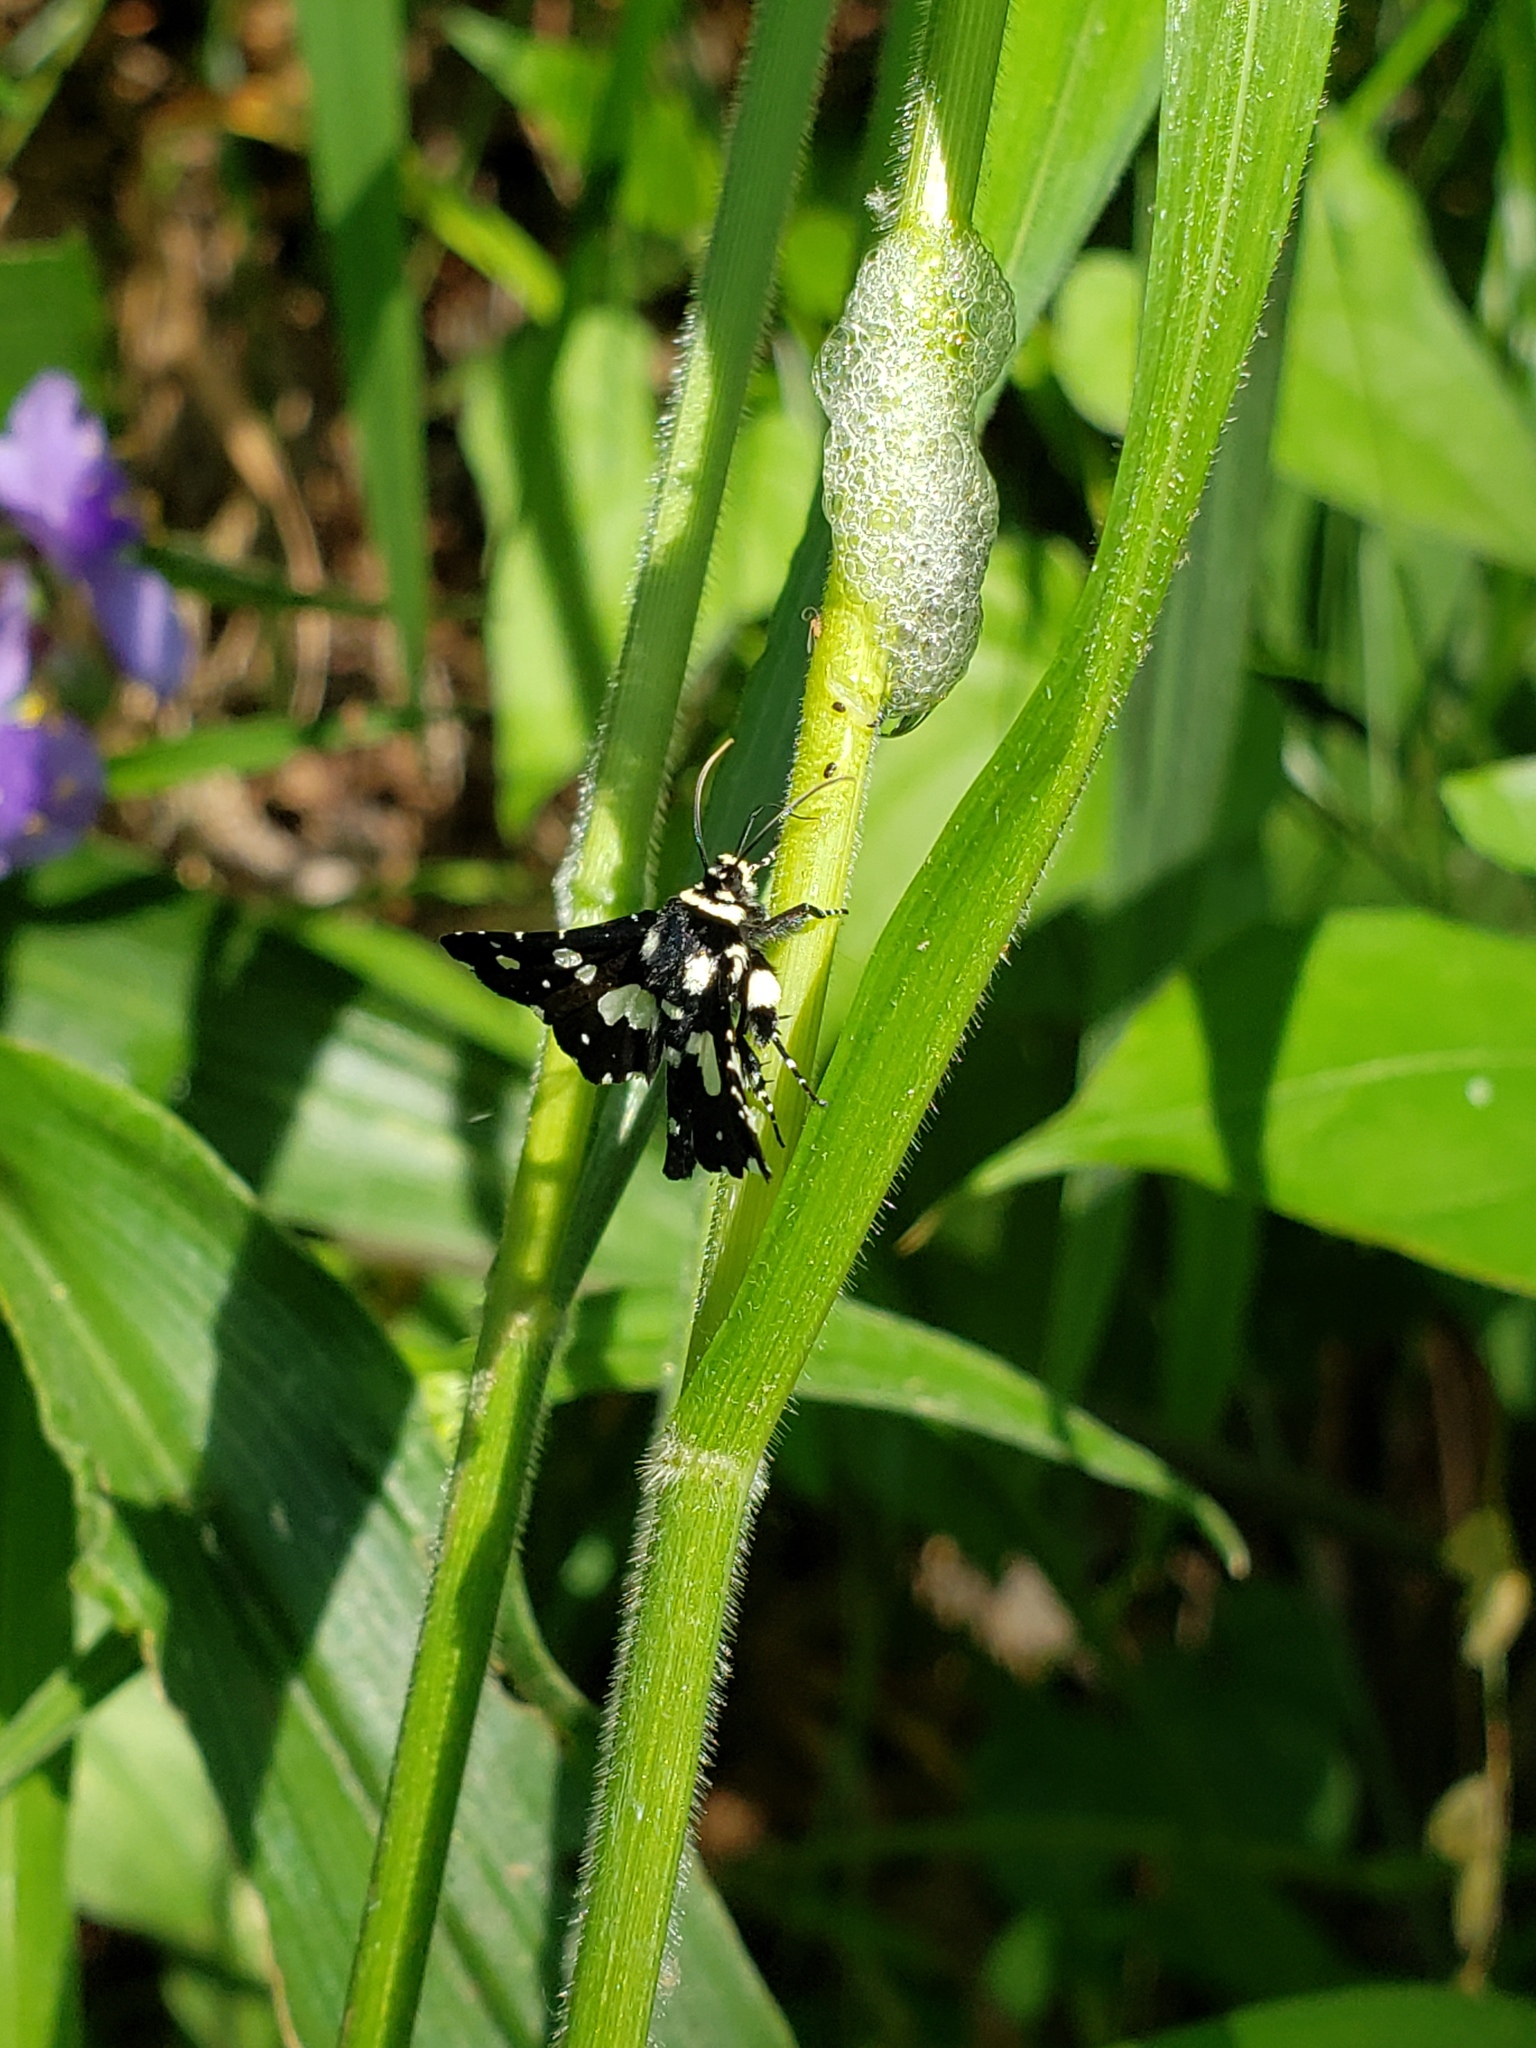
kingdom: Animalia
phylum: Arthropoda
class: Insecta
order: Lepidoptera
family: Thyrididae
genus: Pseudothyris
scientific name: Pseudothyris sepulchralis
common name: Mournful thyris moth
